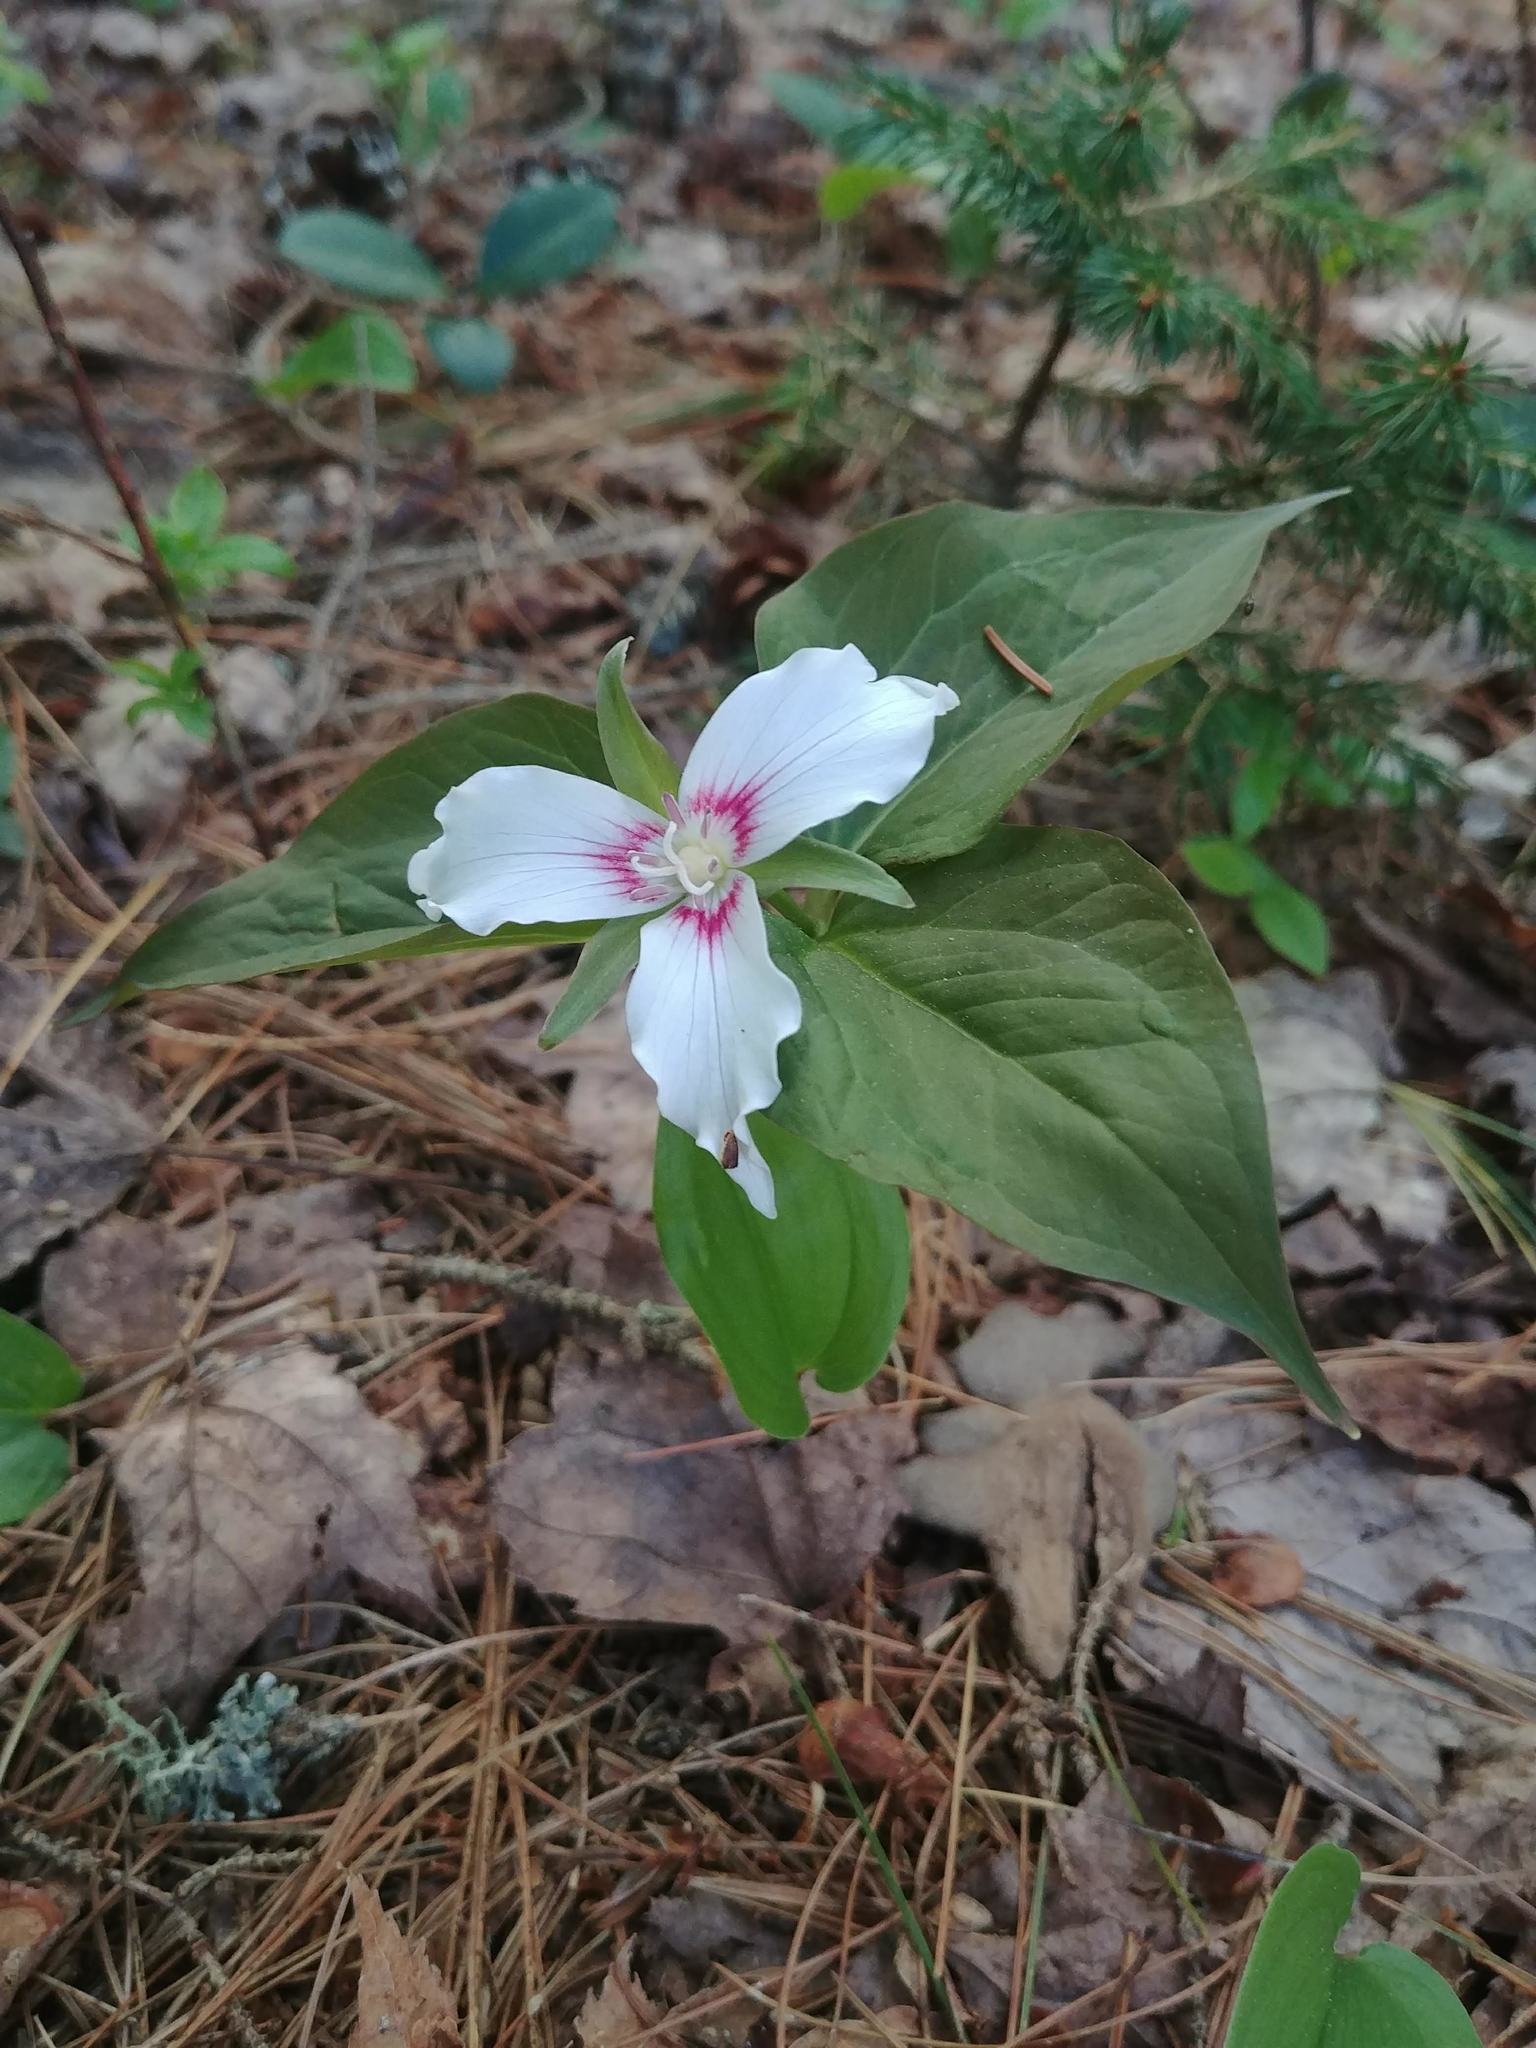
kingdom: Plantae
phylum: Tracheophyta
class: Liliopsida
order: Liliales
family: Melanthiaceae
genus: Trillium
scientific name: Trillium undulatum
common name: Paint trillium
